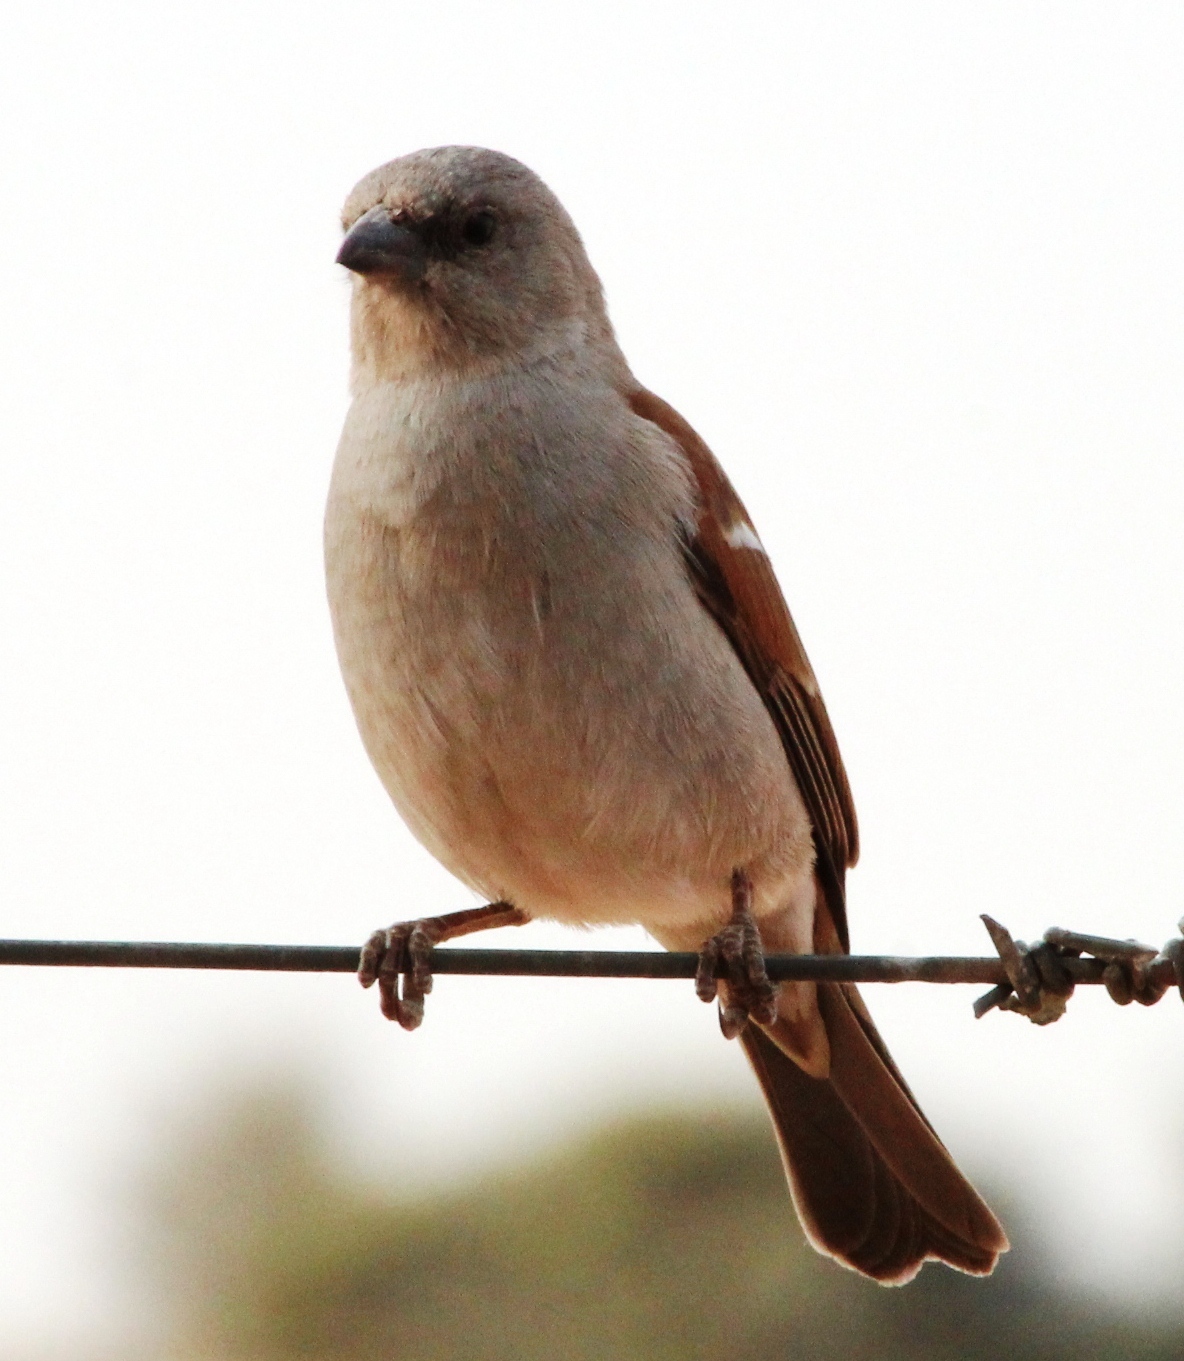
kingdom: Animalia
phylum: Chordata
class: Aves
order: Passeriformes
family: Passeridae
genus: Passer
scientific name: Passer diffusus
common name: Southern grey-headed sparrow
